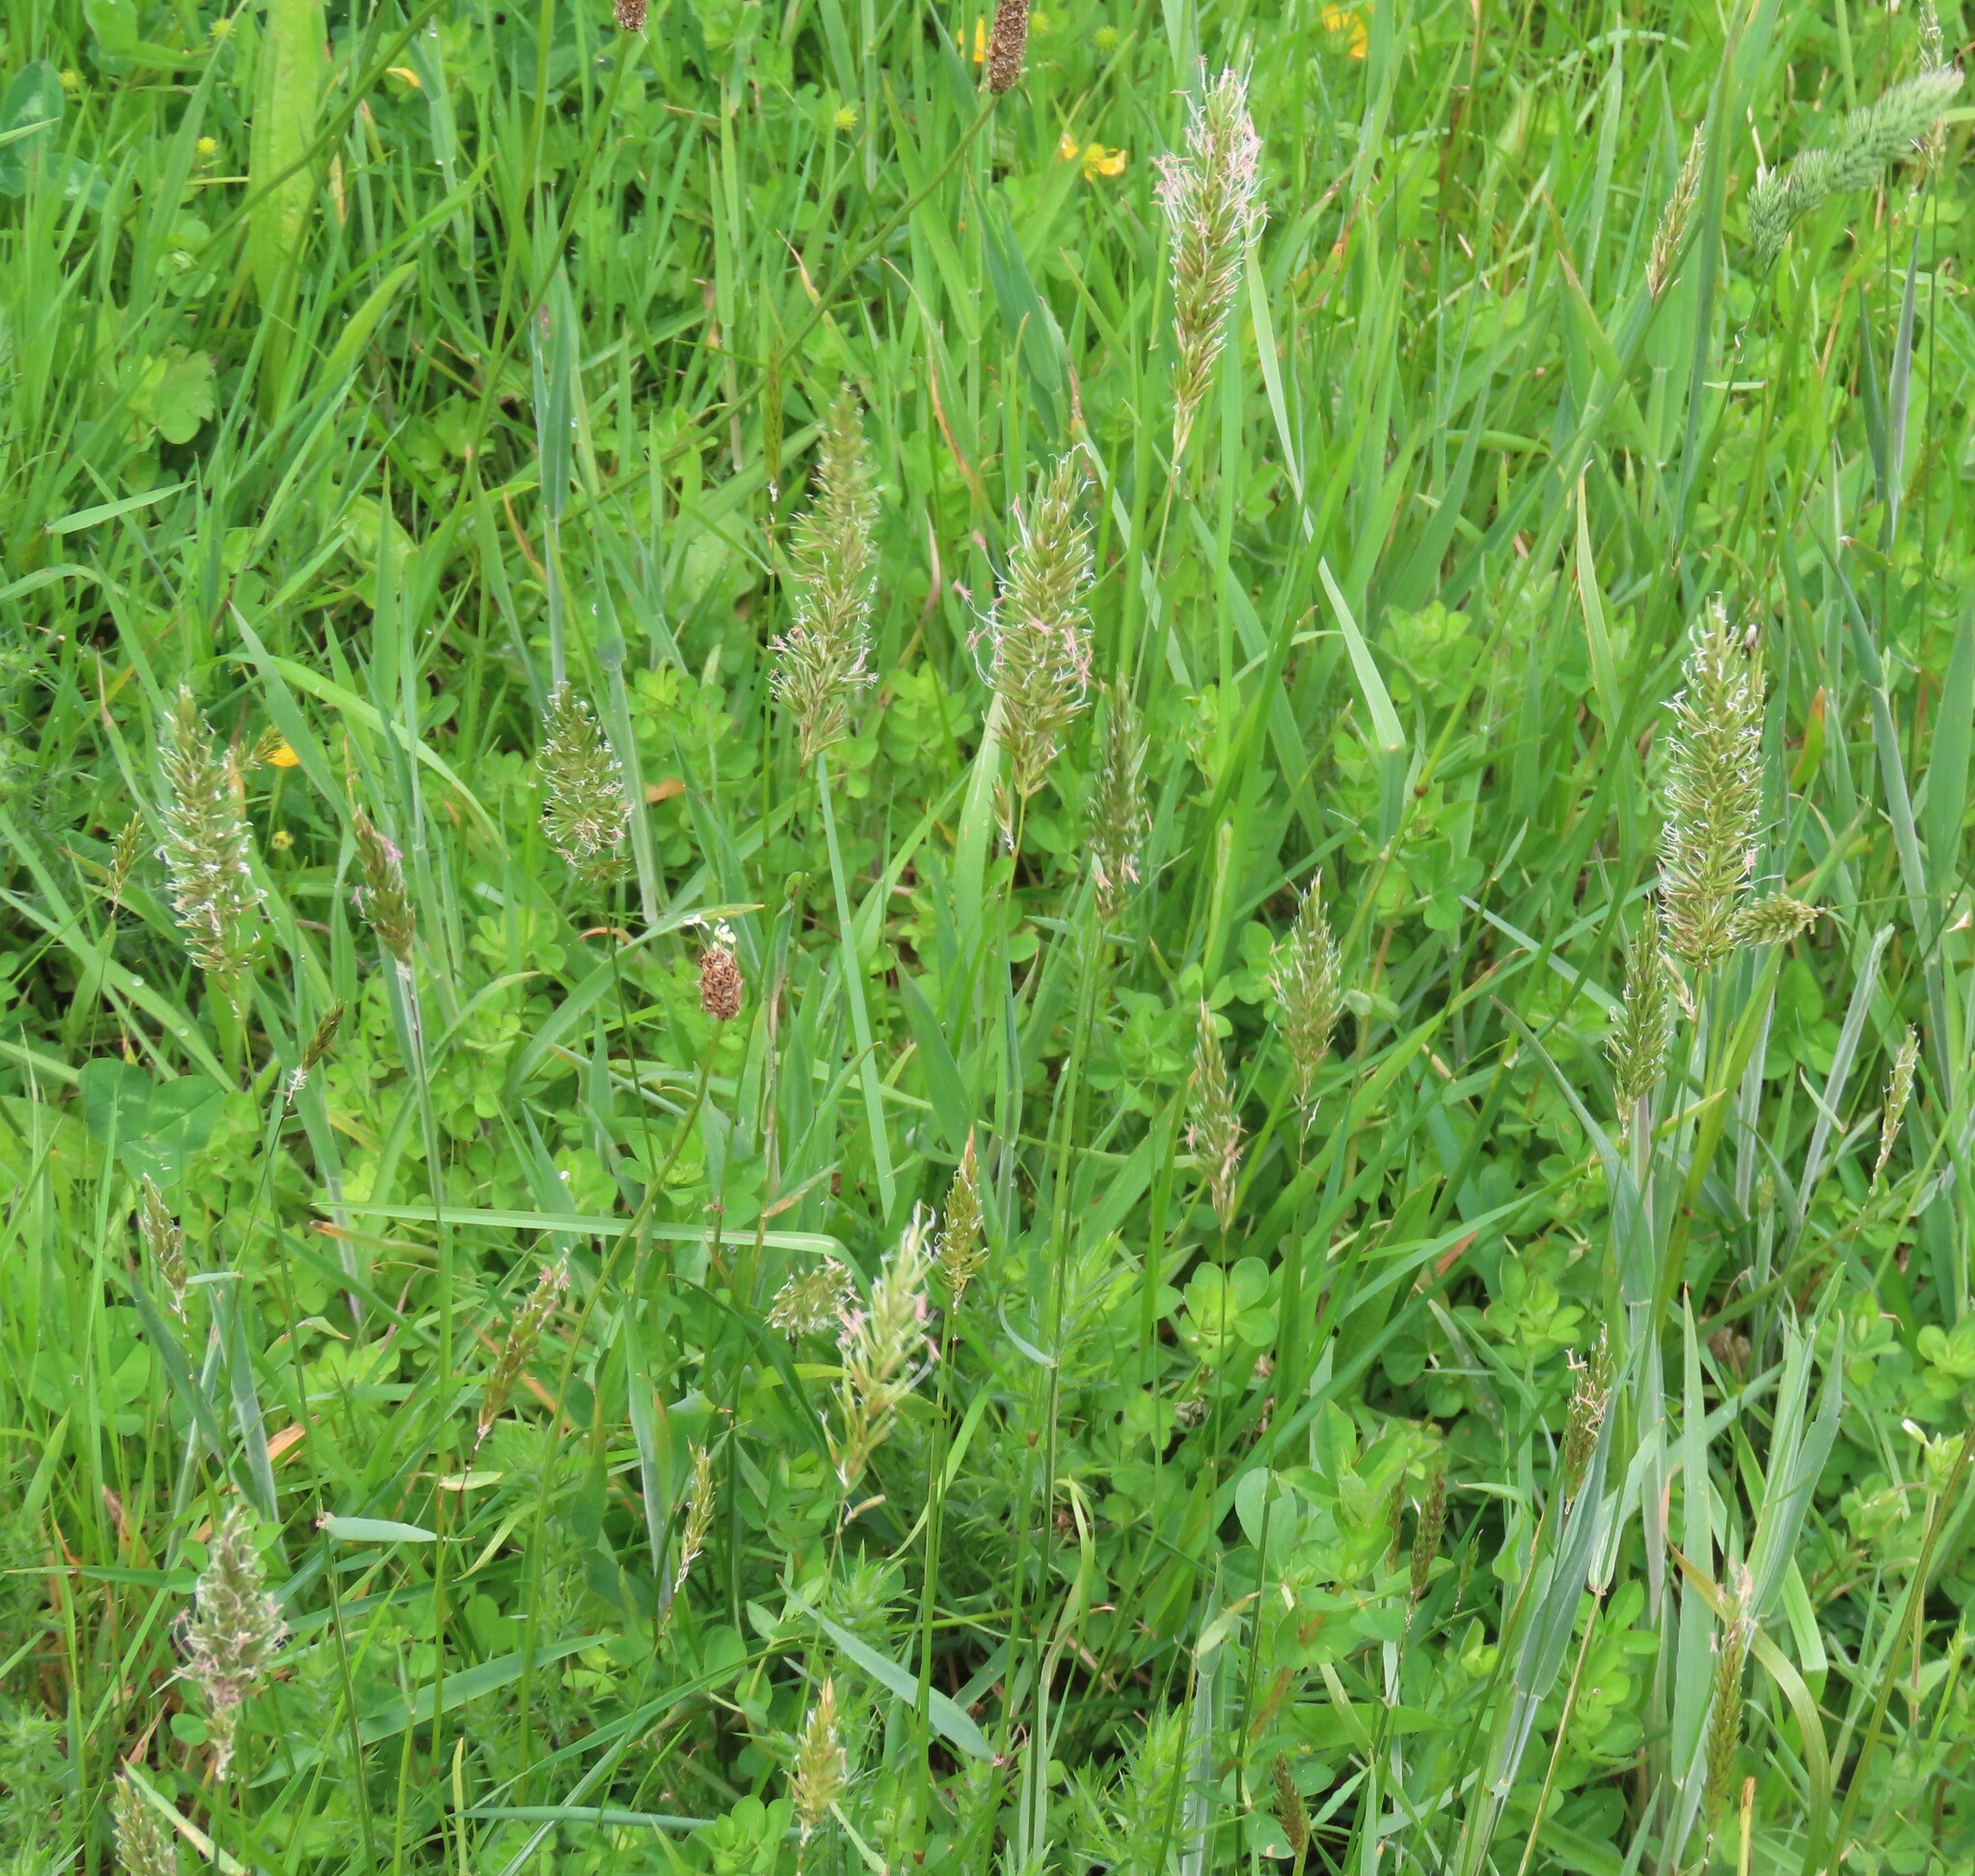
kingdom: Plantae
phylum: Tracheophyta
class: Liliopsida
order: Poales
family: Poaceae
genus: Anthoxanthum
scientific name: Anthoxanthum odoratum
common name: Sweet vernalgrass
